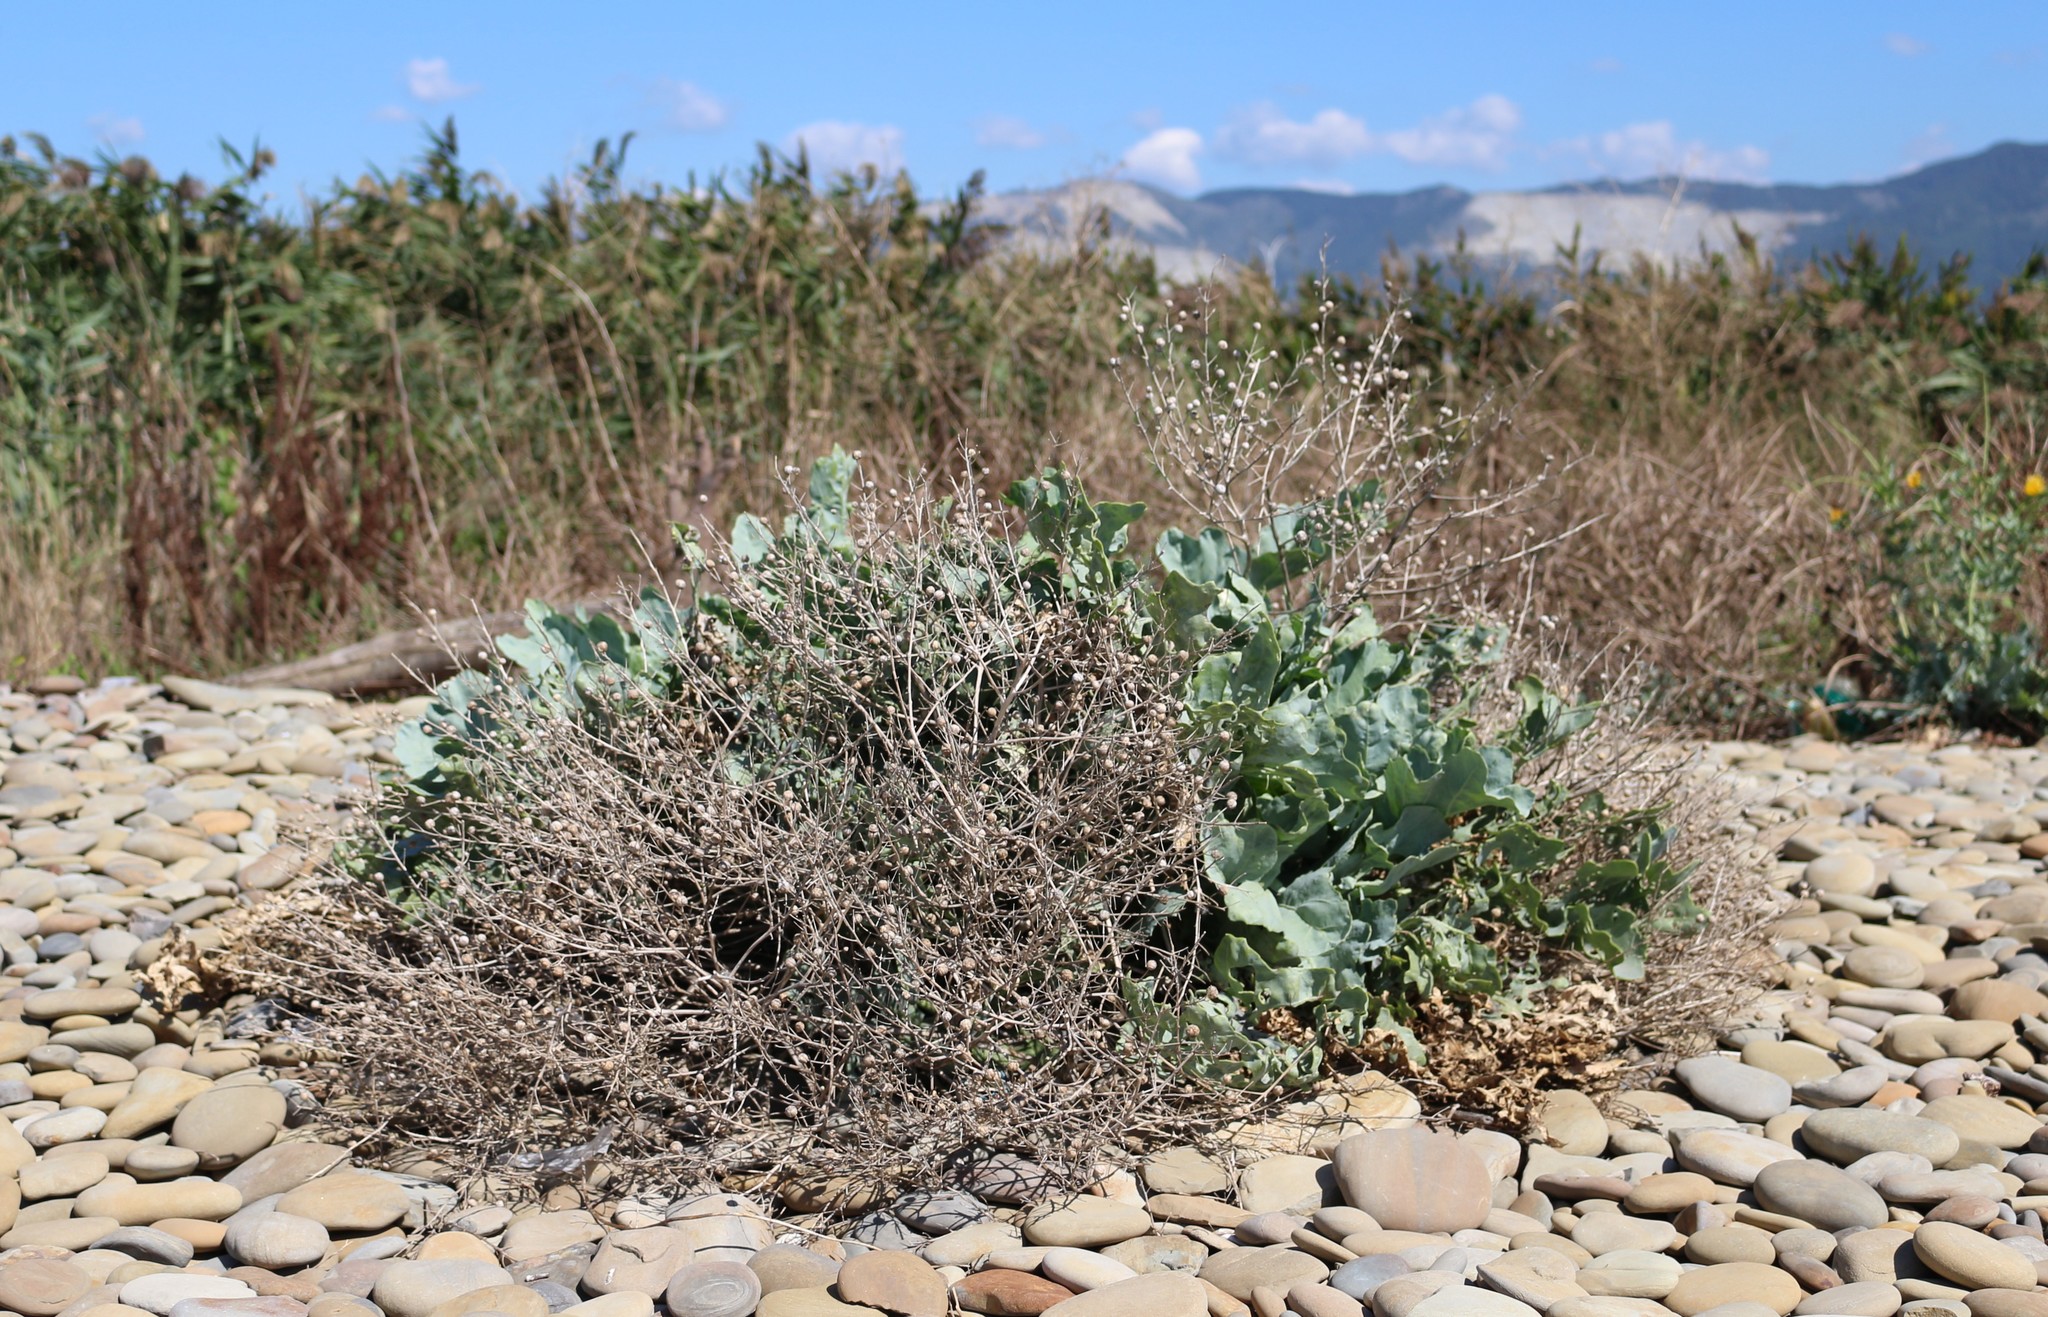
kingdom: Plantae
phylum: Tracheophyta
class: Magnoliopsida
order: Brassicales
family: Brassicaceae
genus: Crambe
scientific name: Crambe maritima
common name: Sea-kale
